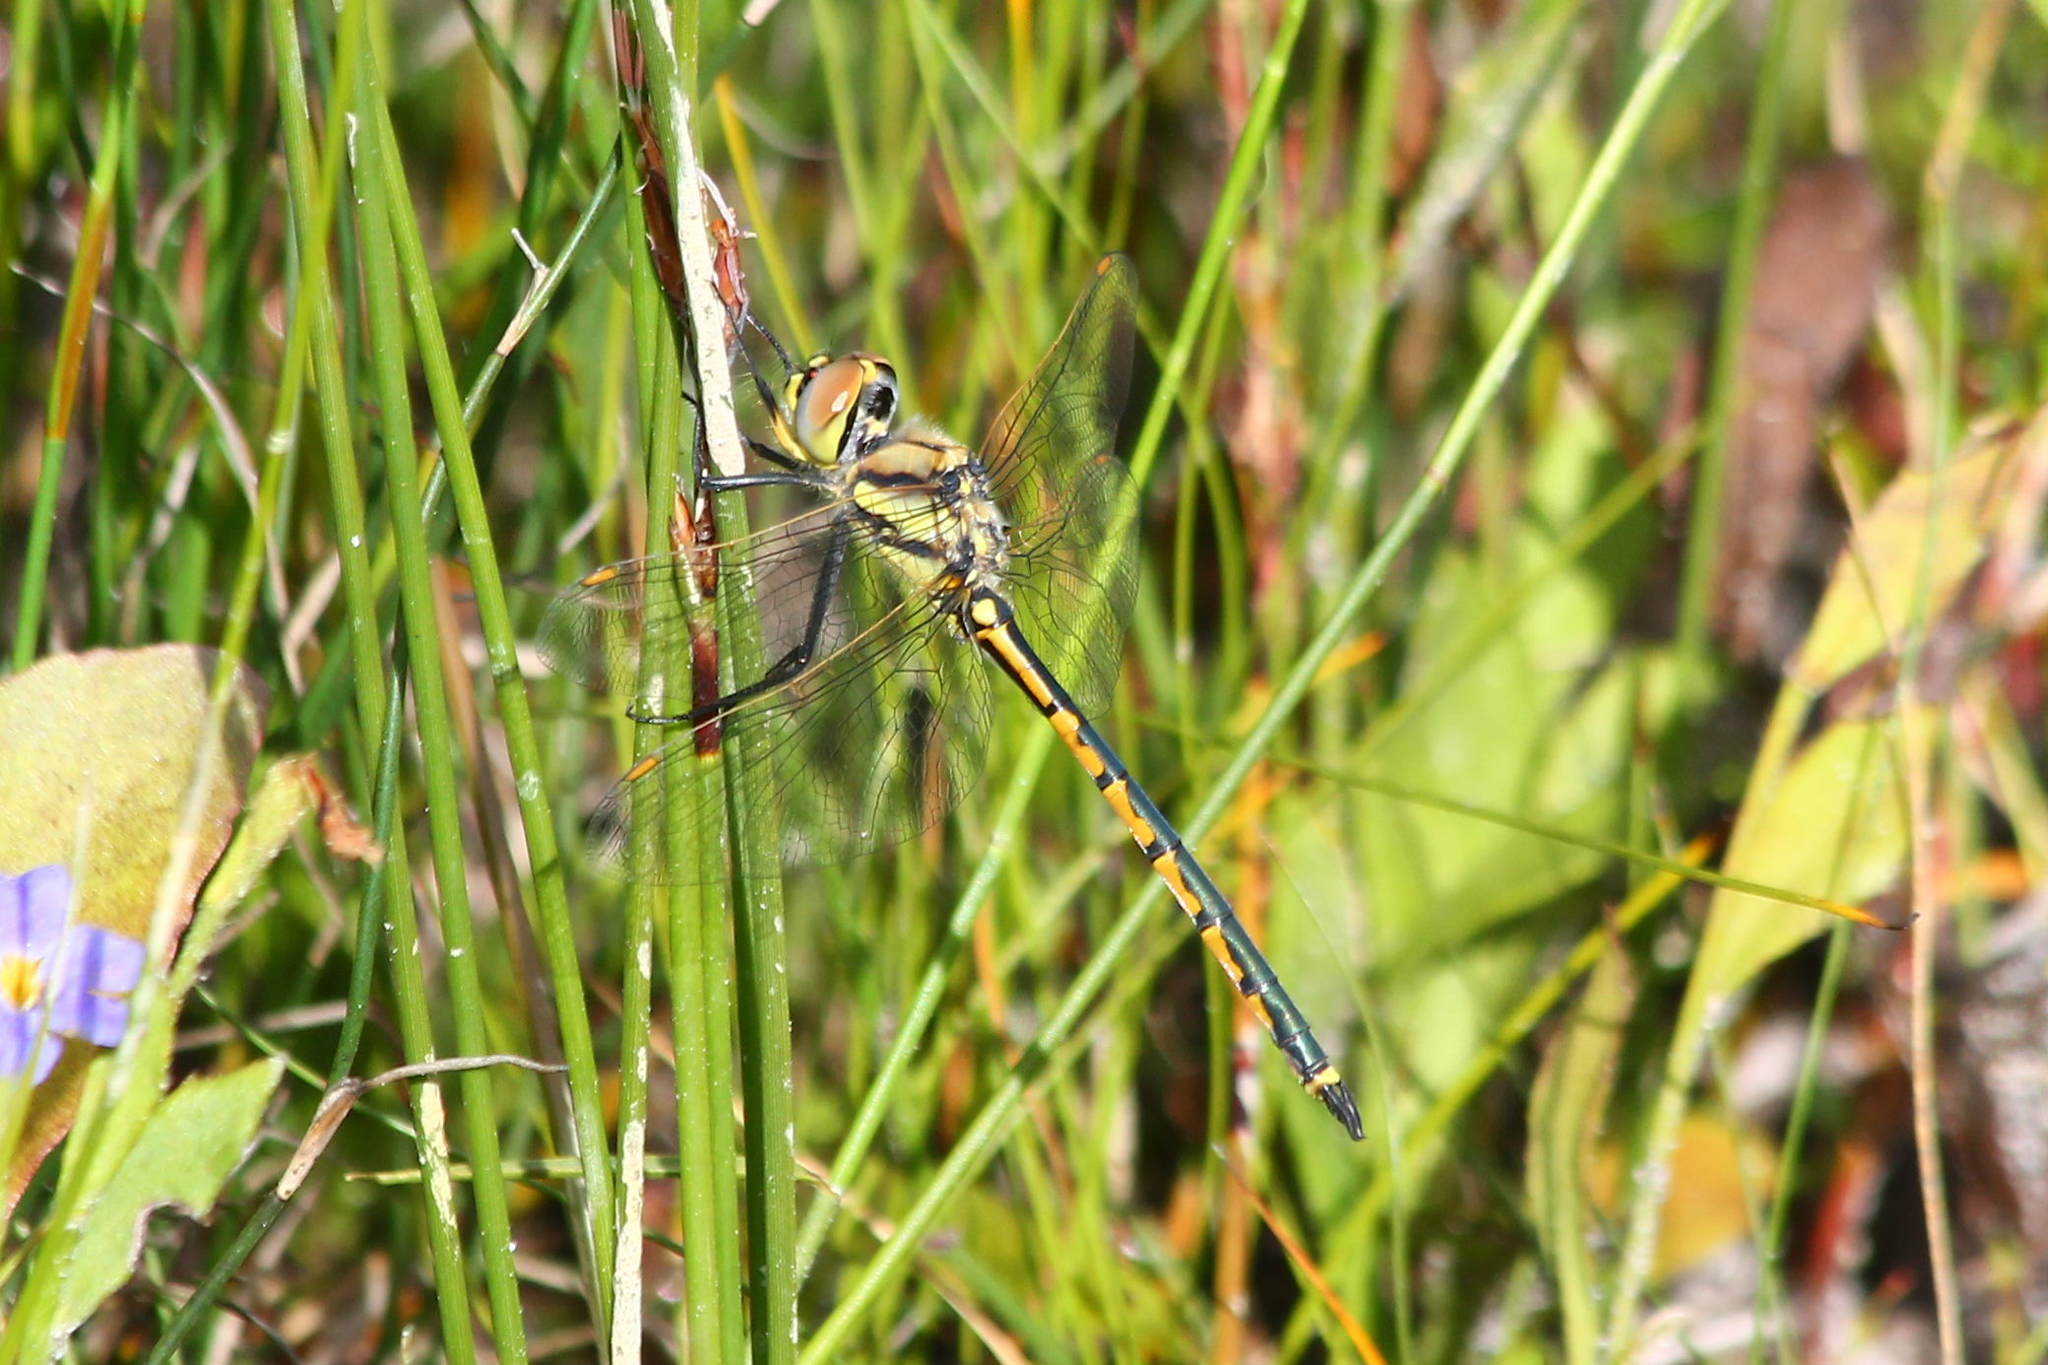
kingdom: Animalia
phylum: Arthropoda
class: Insecta
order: Odonata
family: Corduliidae
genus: Hemicordulia
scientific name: Hemicordulia tau
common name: Tau emerald
